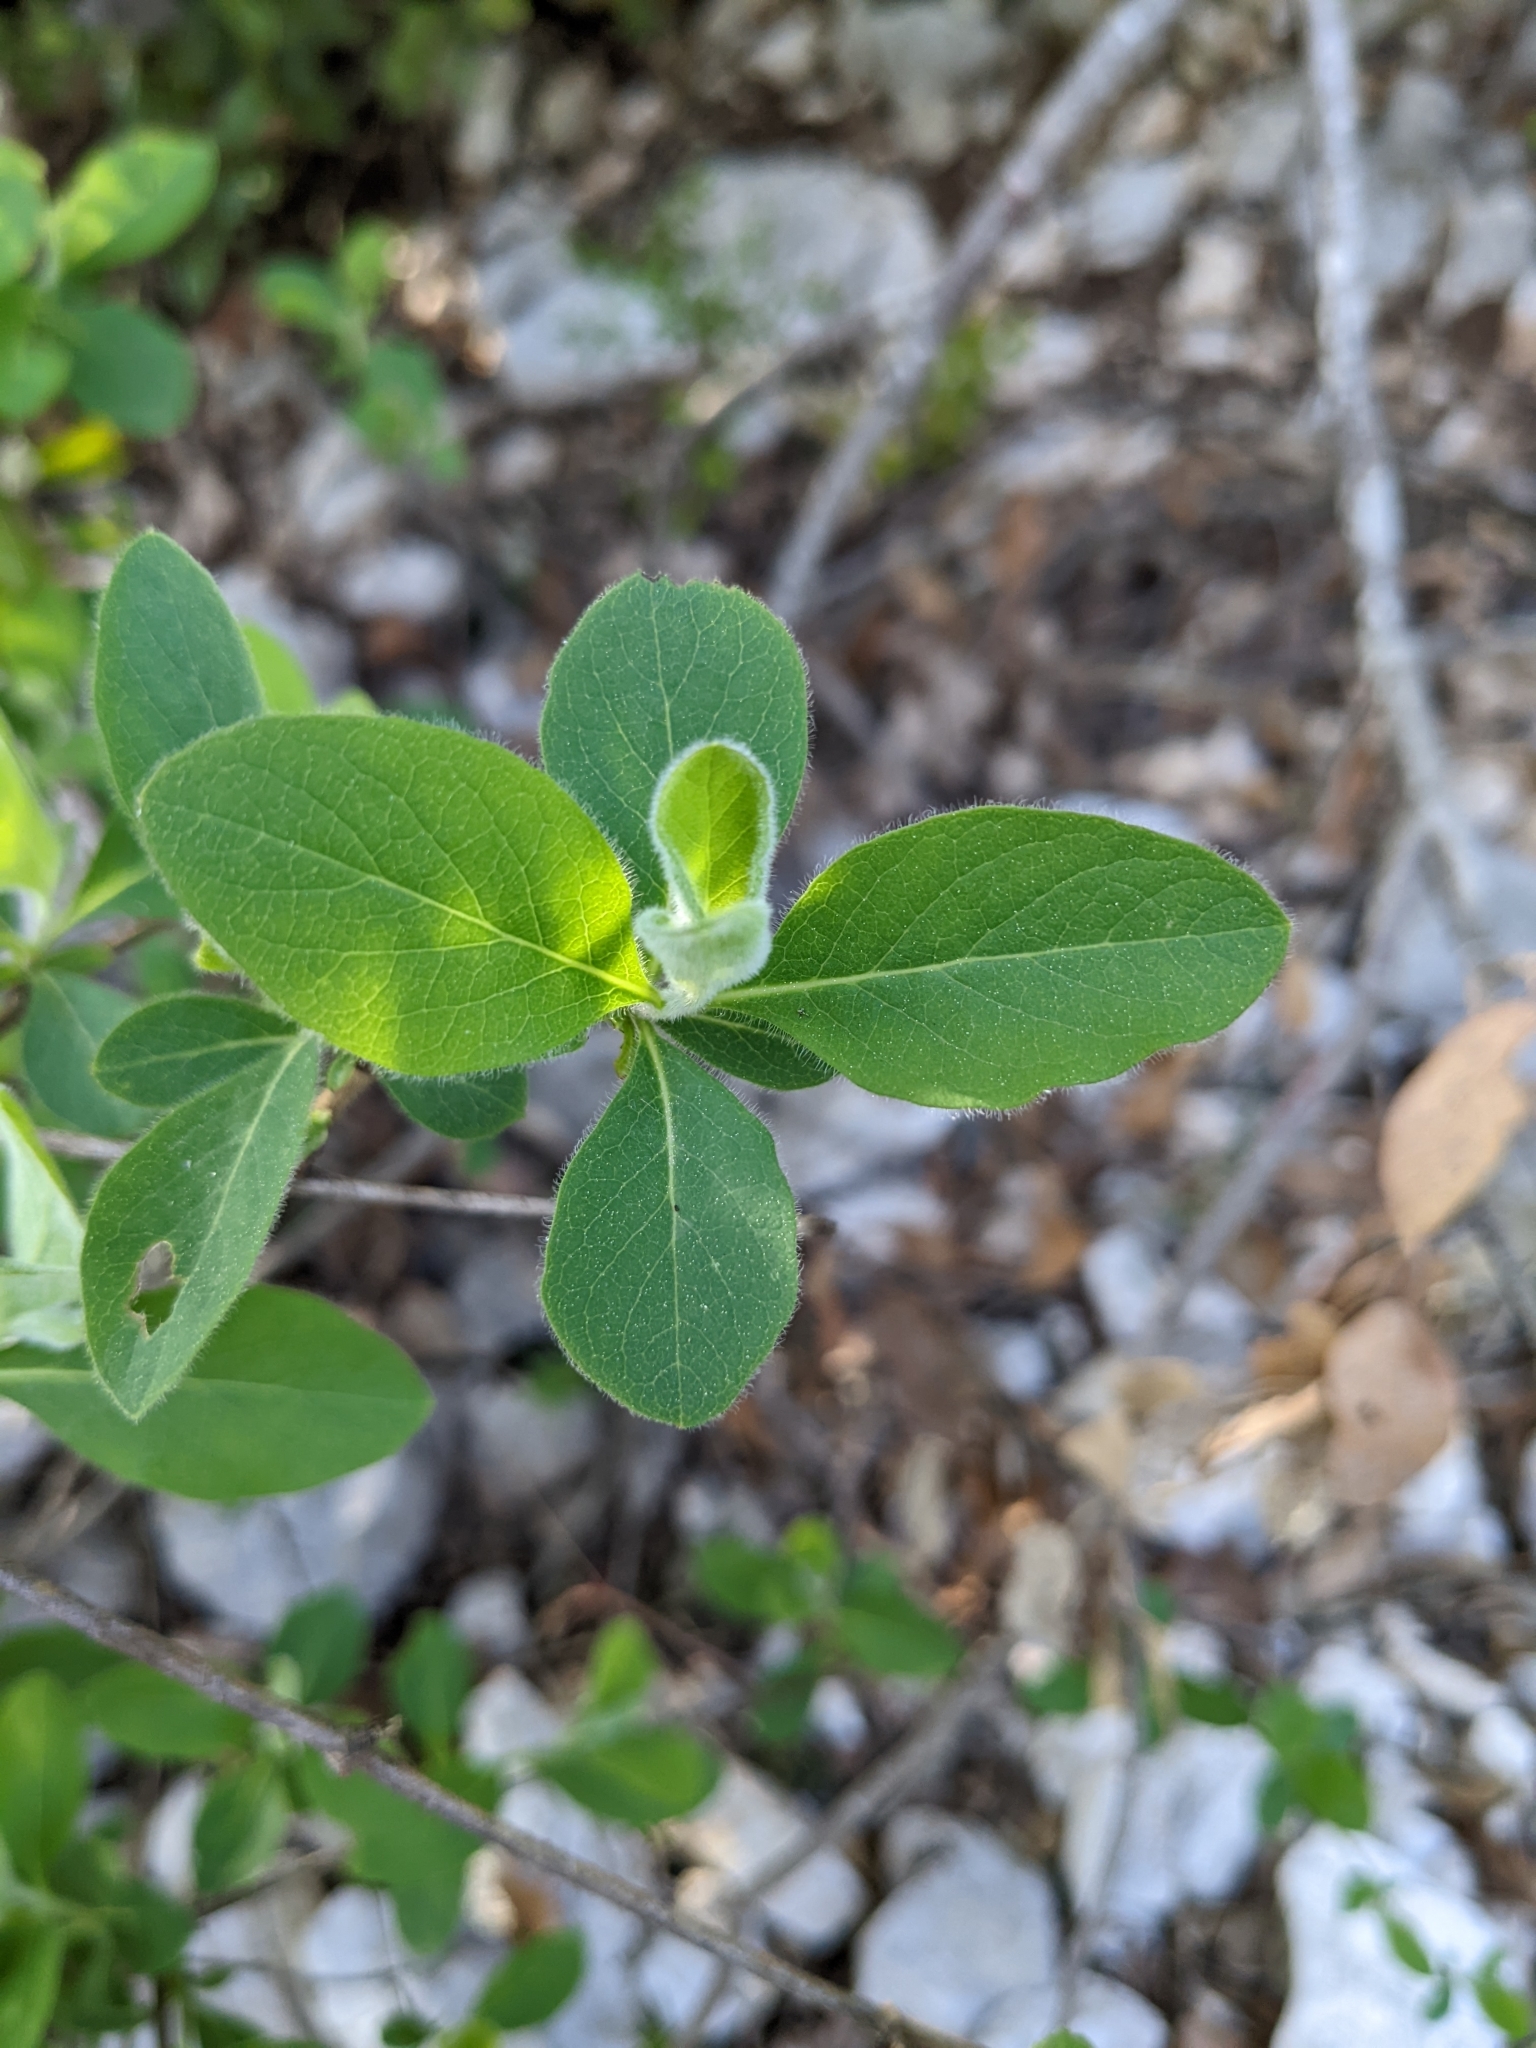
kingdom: Plantae
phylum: Tracheophyta
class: Magnoliopsida
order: Dipsacales
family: Caprifoliaceae
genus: Lonicera
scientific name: Lonicera etrusca
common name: Etruscan honeysuckle
